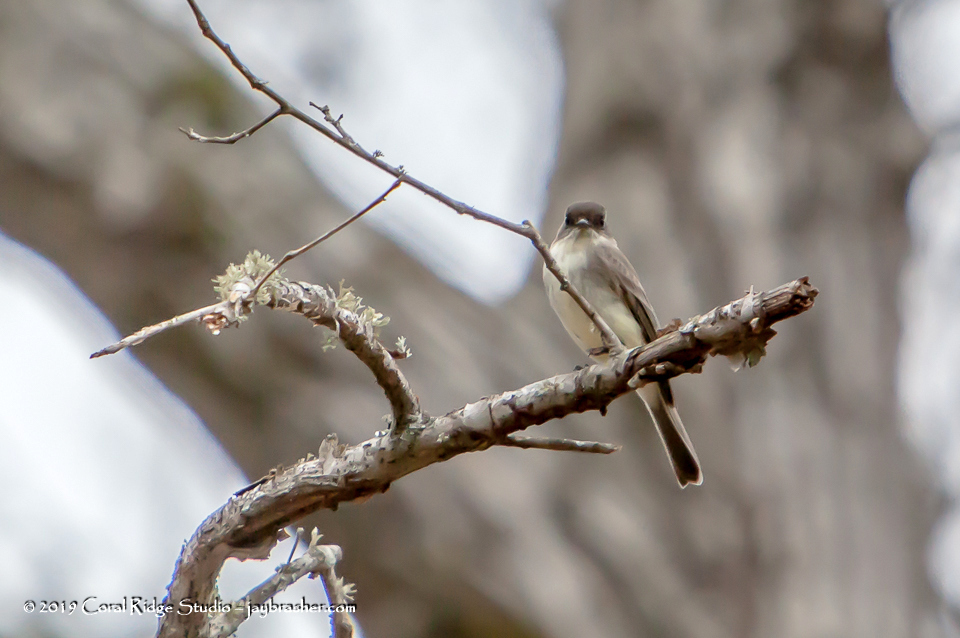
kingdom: Animalia
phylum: Chordata
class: Aves
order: Passeriformes
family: Tyrannidae
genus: Sayornis
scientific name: Sayornis phoebe
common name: Eastern phoebe
